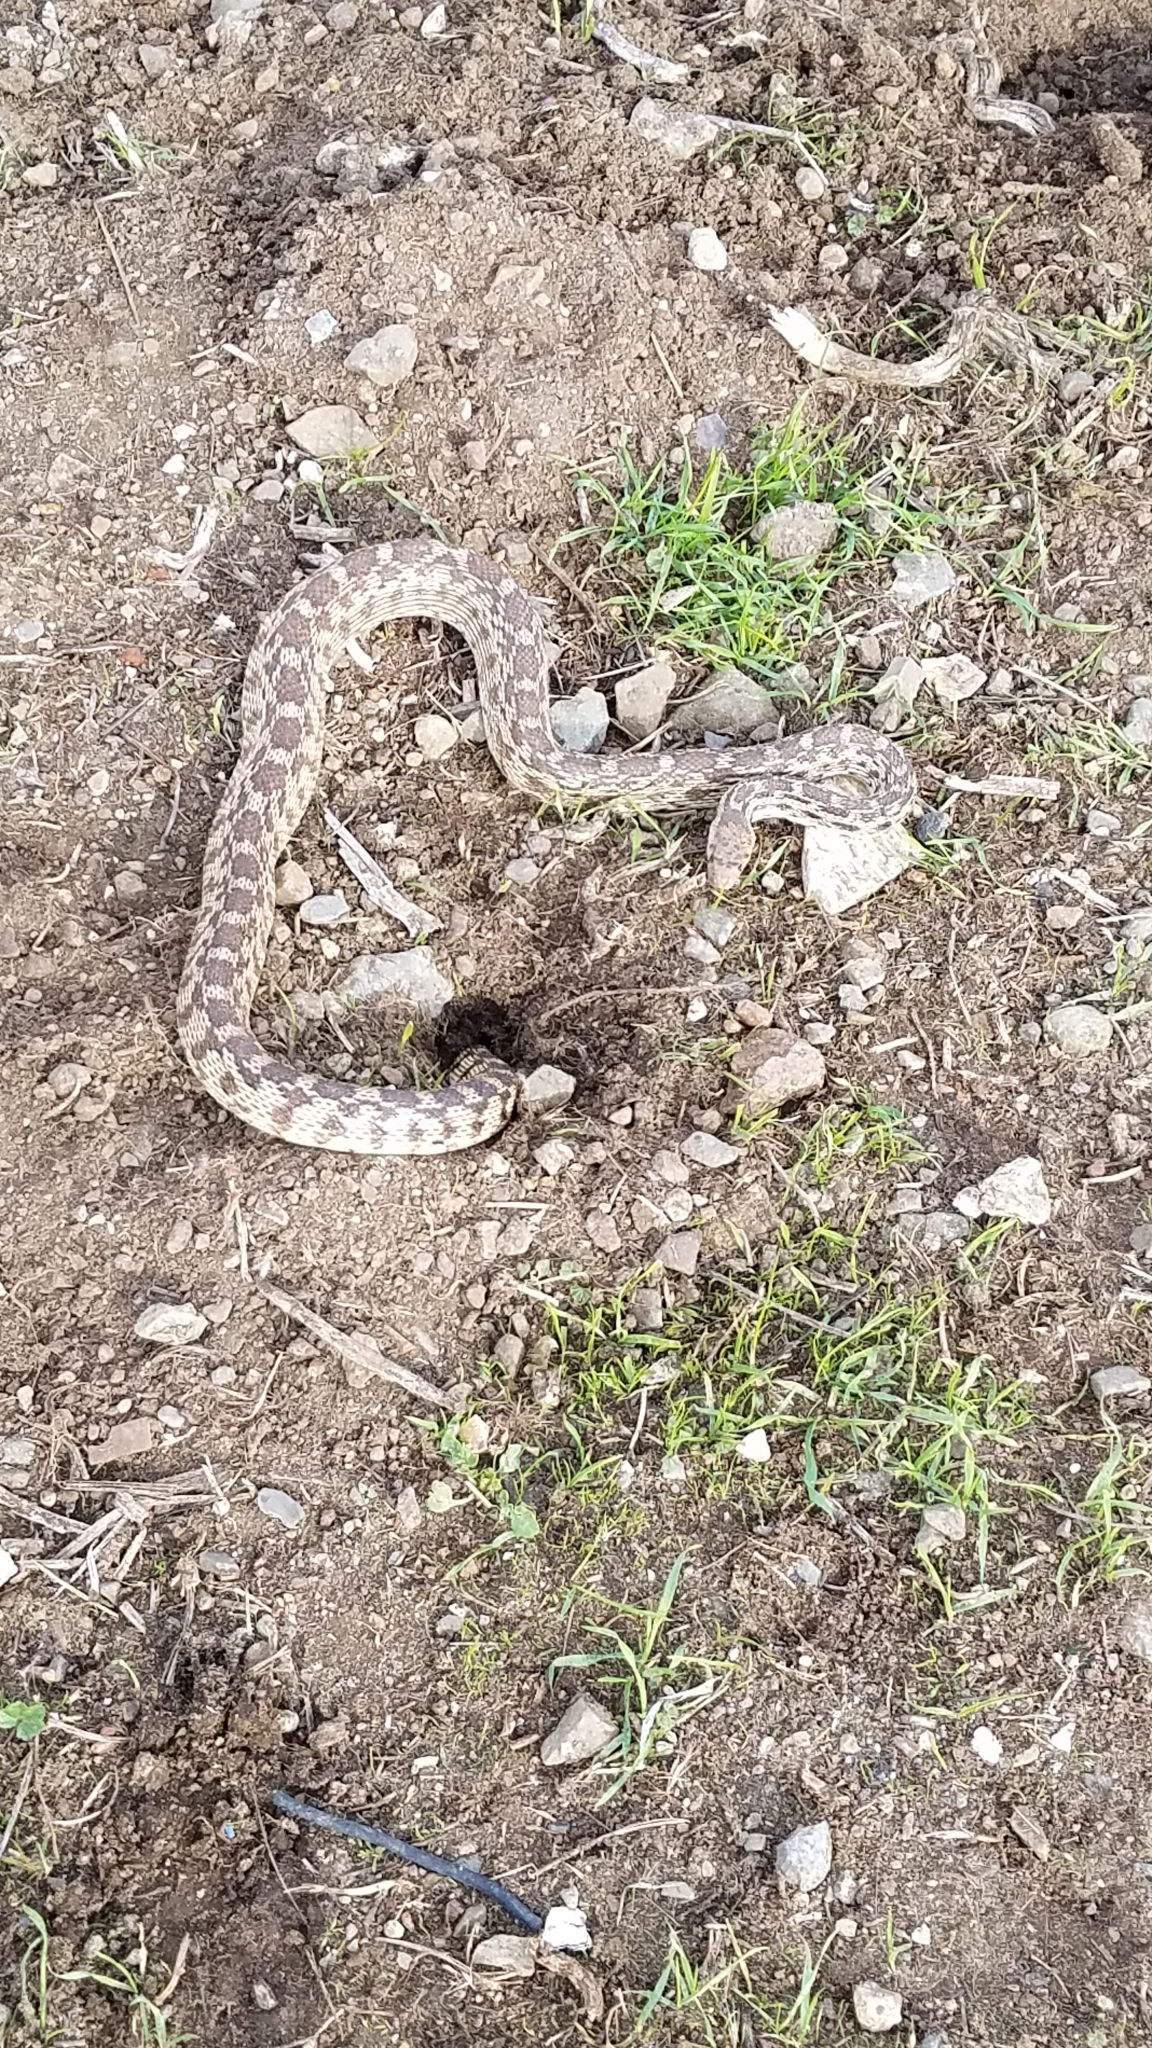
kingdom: Animalia
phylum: Chordata
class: Squamata
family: Colubridae
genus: Pituophis
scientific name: Pituophis catenifer
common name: Gopher snake
